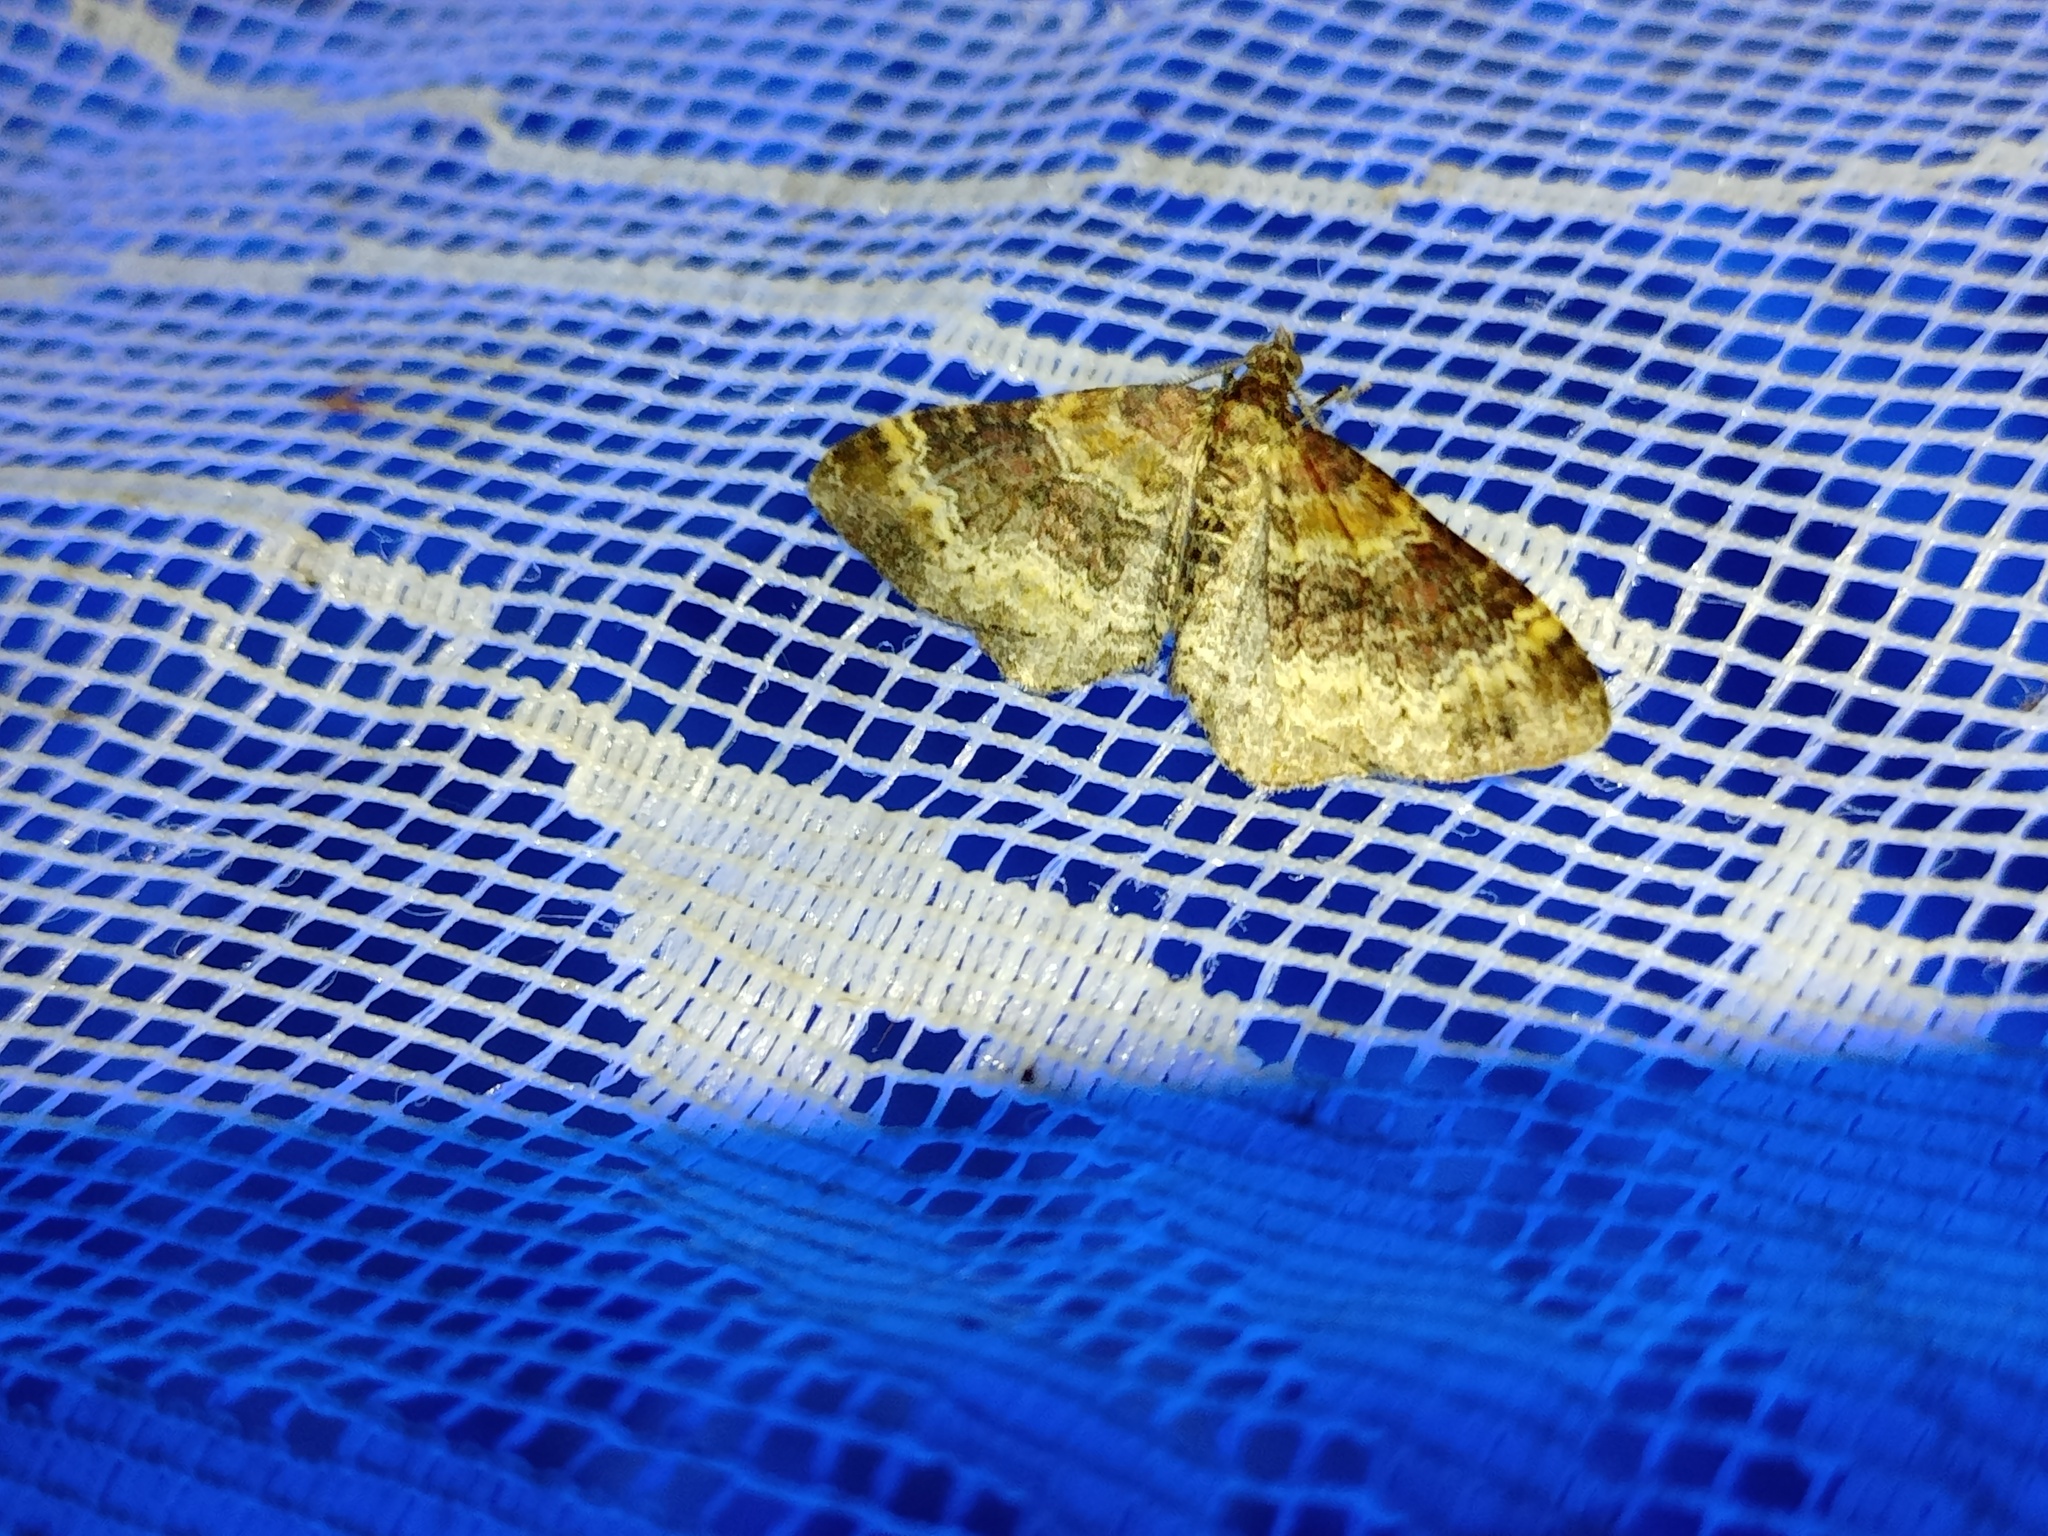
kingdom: Animalia
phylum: Arthropoda
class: Insecta
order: Lepidoptera
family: Geometridae
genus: Xanthorhoe
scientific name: Xanthorhoe spadicearia
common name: Red twin-spot carpet
